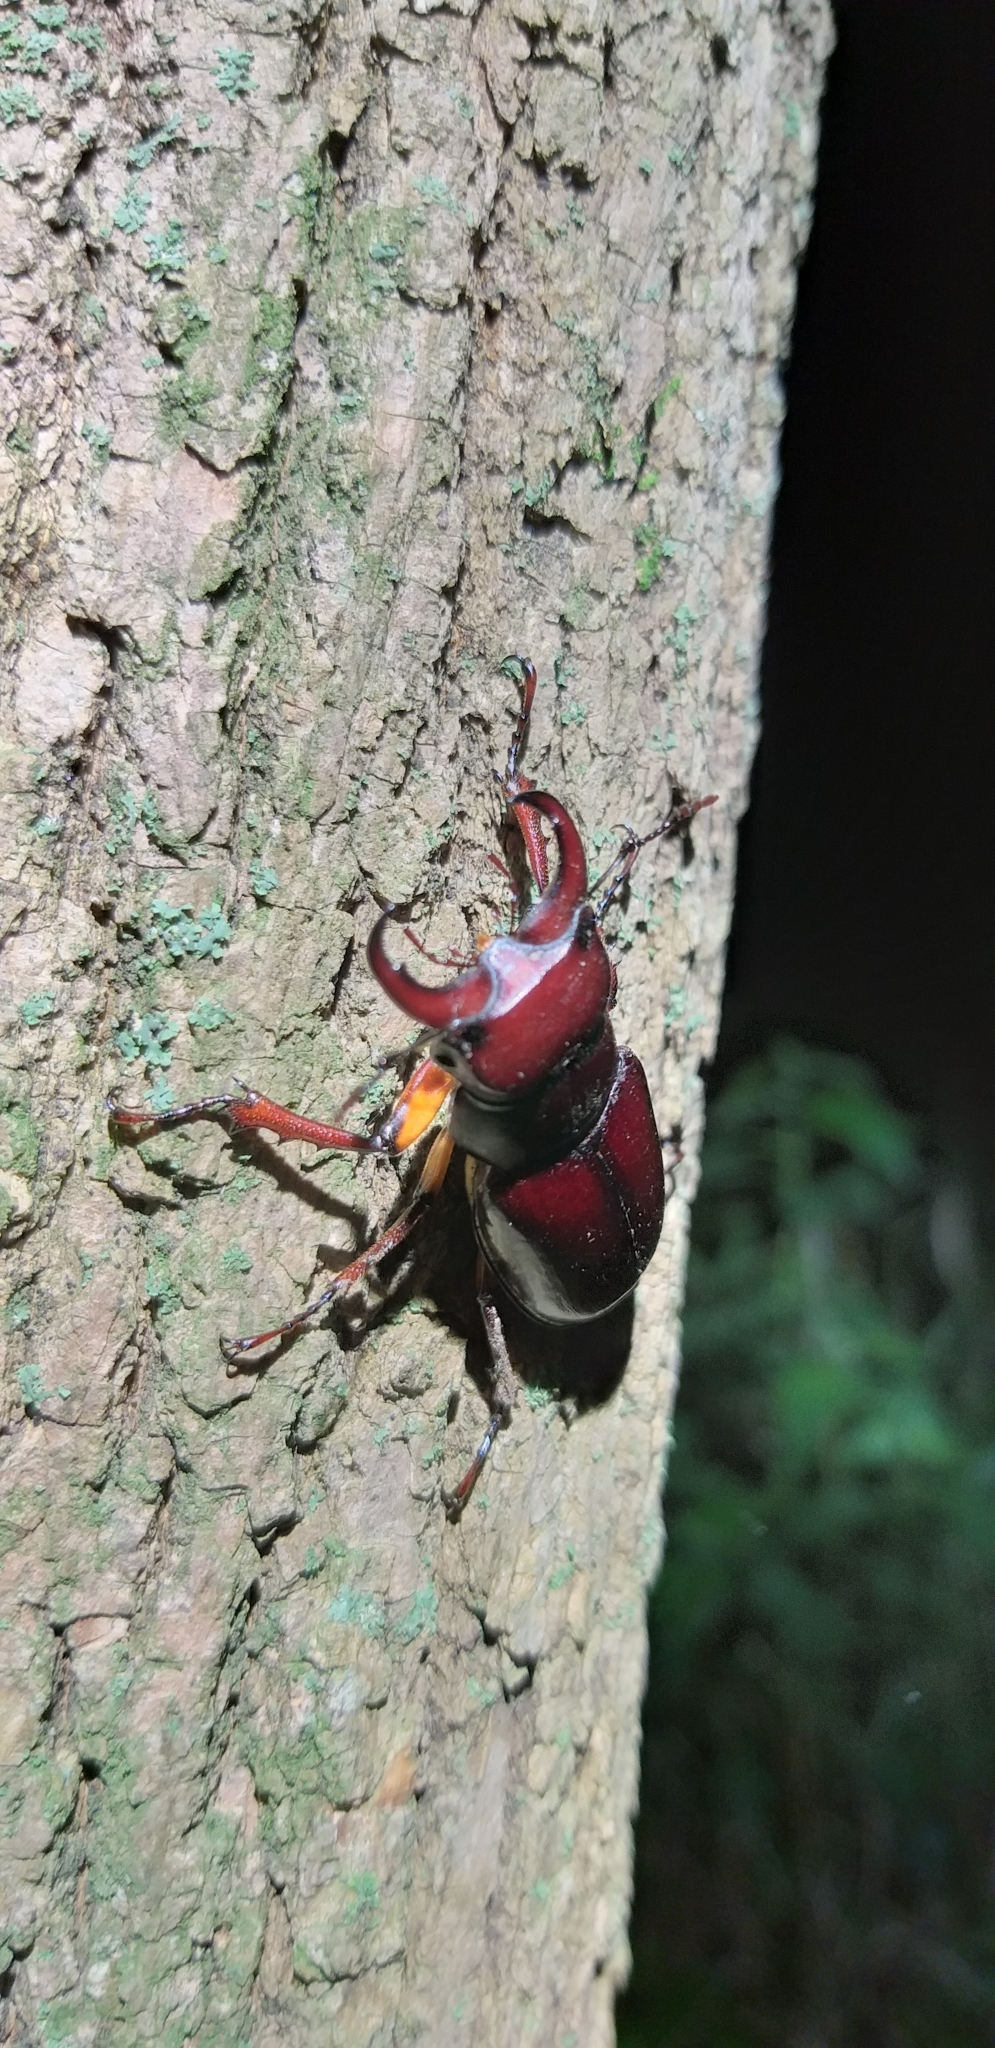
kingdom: Animalia
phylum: Arthropoda
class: Insecta
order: Coleoptera
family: Lucanidae
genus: Lucanus
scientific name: Lucanus capreolus
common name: Stag beetle
